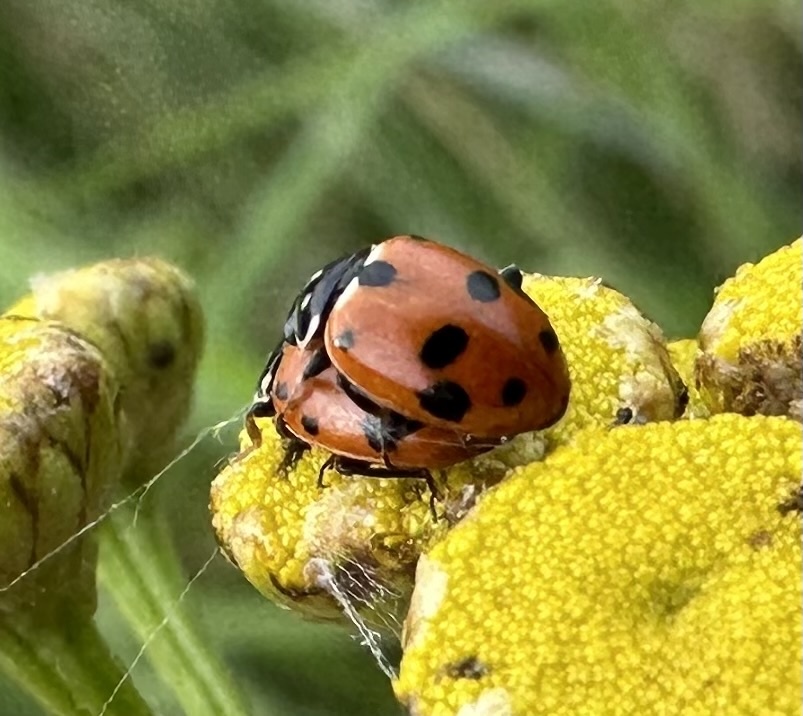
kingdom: Animalia
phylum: Arthropoda
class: Insecta
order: Coleoptera
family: Coccinellidae
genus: Hippodamia
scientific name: Hippodamia variegata
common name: Ladybird beetle
